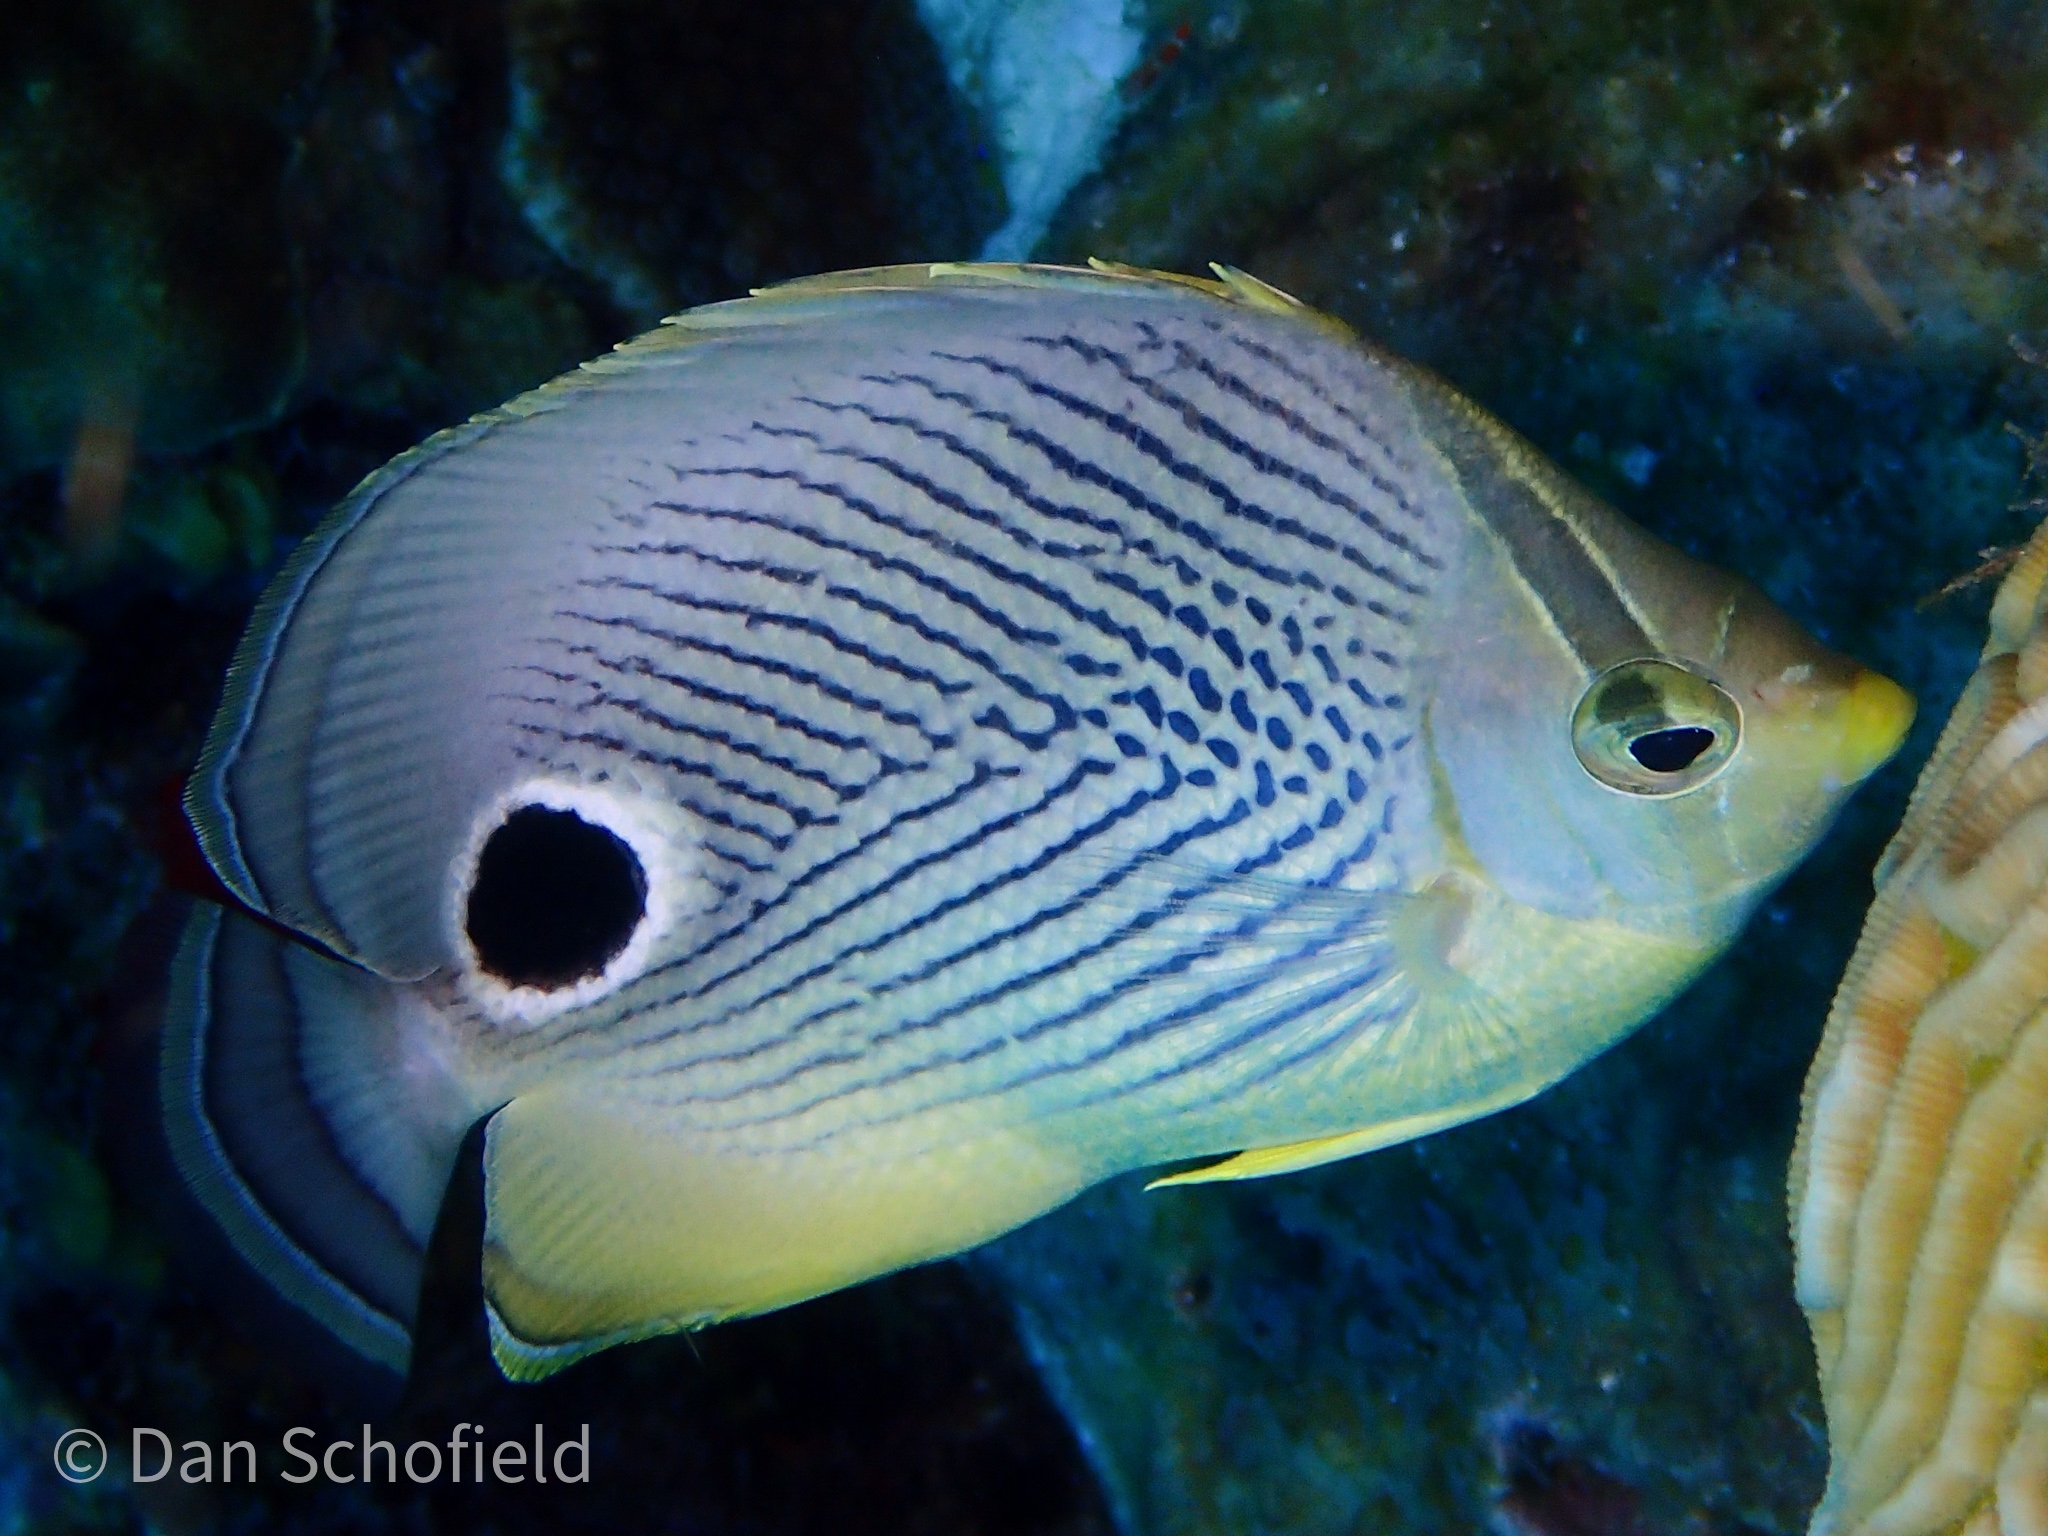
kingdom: Animalia
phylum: Chordata
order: Perciformes
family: Chaetodontidae
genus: Chaetodon
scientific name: Chaetodon capistratus
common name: Kete
